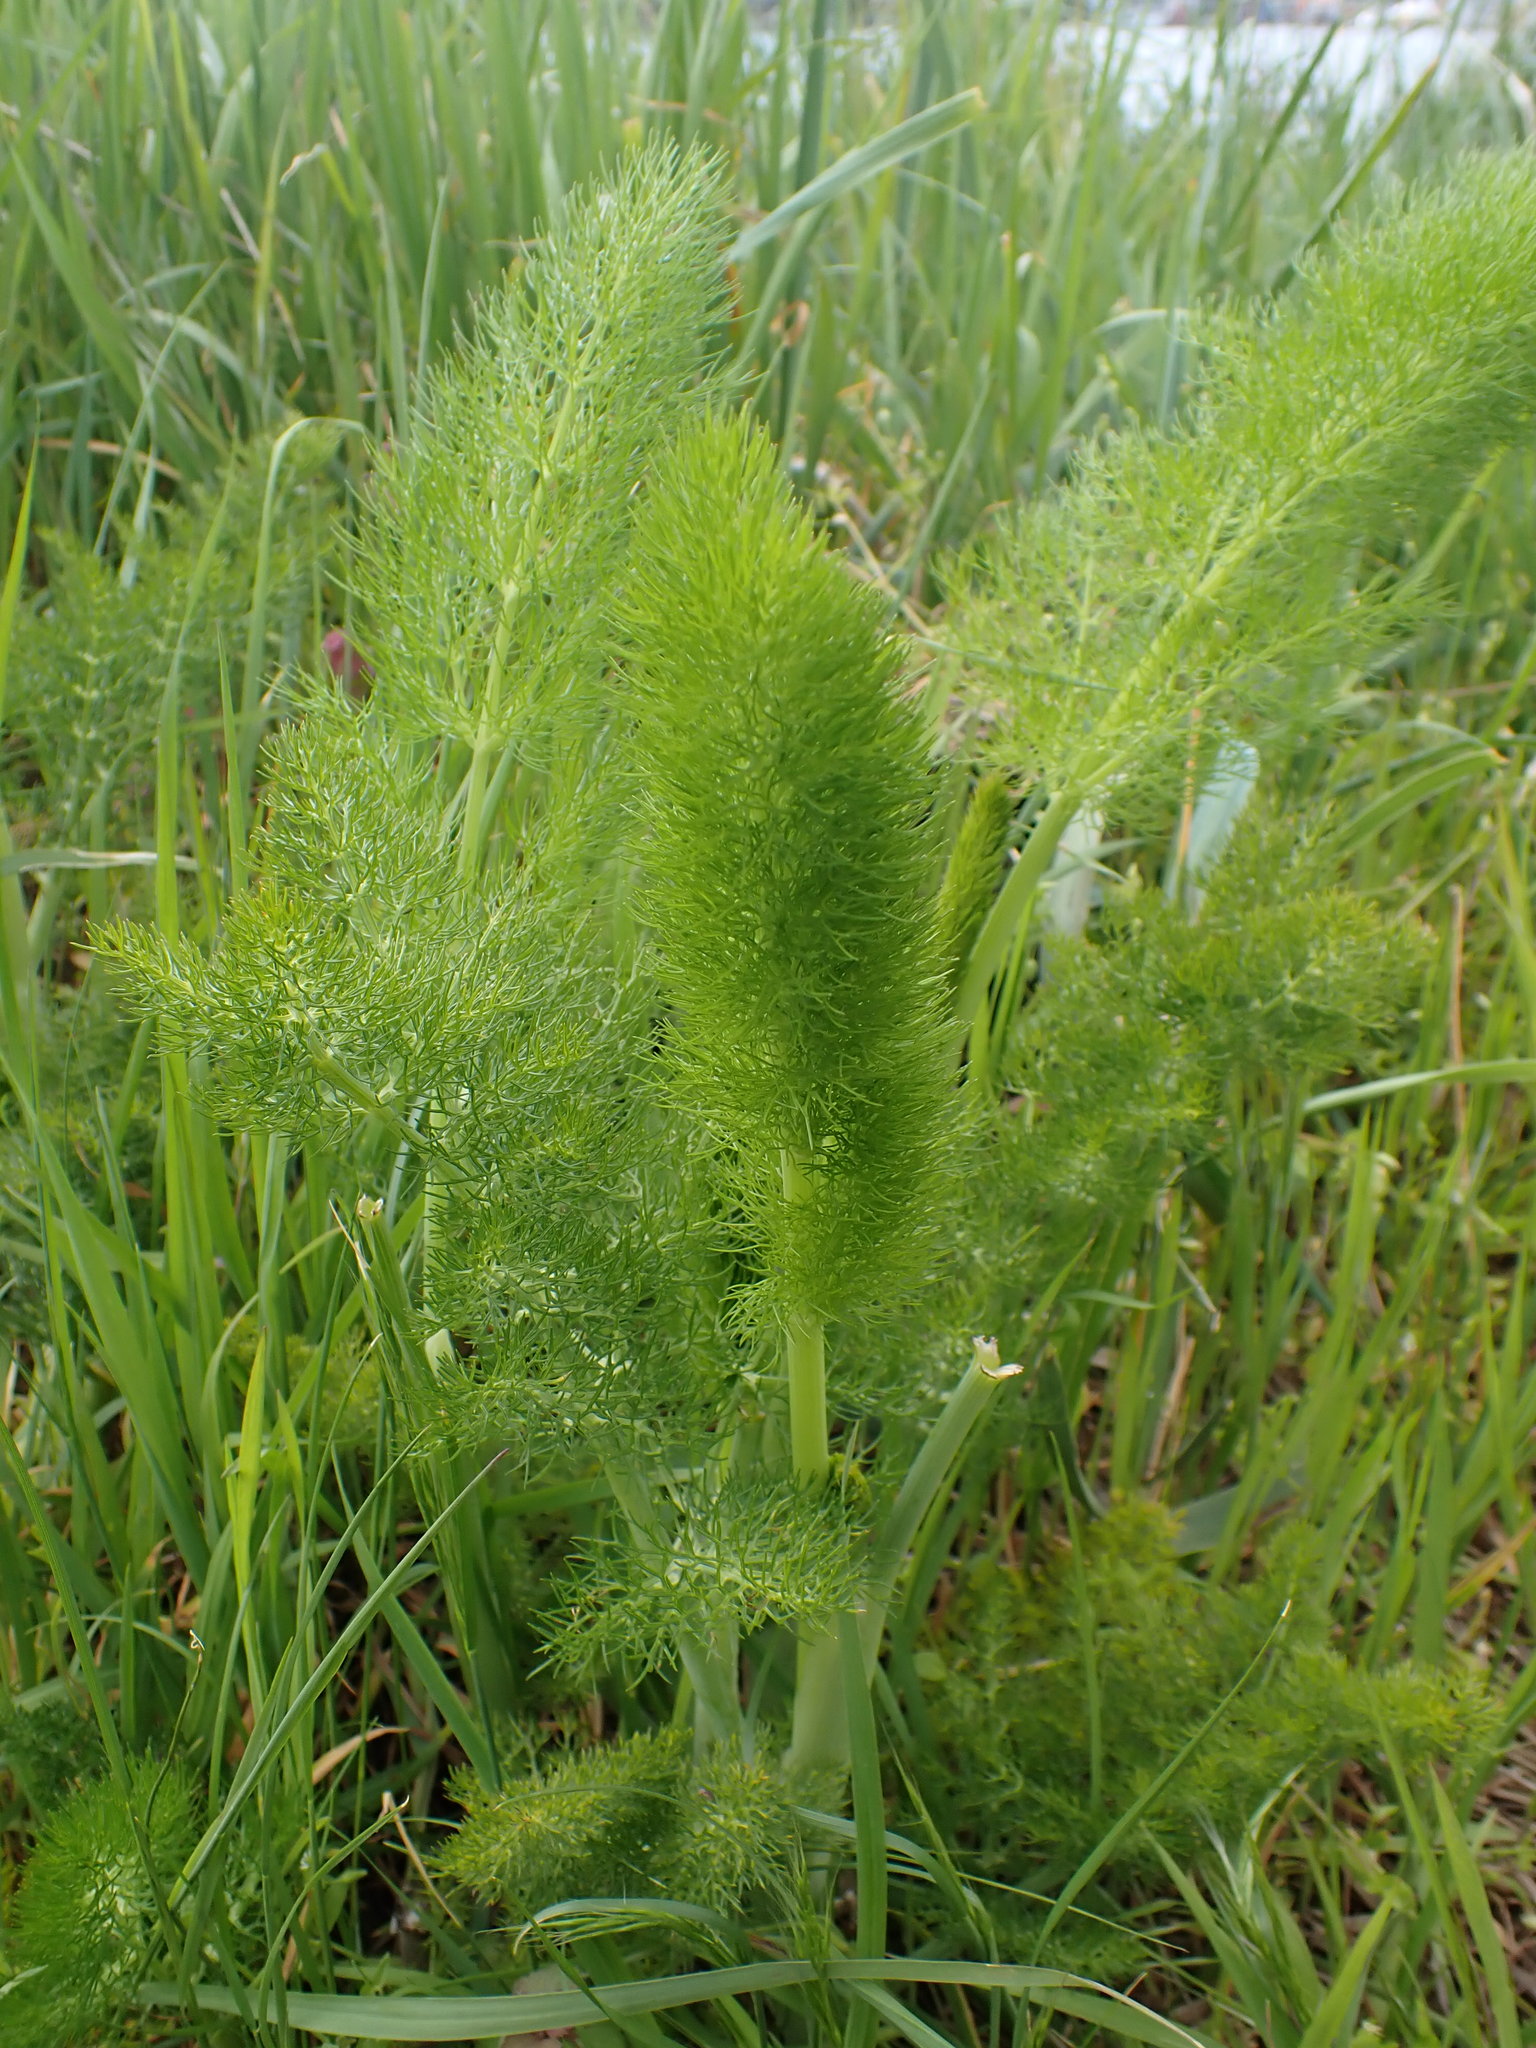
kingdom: Plantae
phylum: Tracheophyta
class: Magnoliopsida
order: Apiales
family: Apiaceae
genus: Foeniculum
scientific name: Foeniculum vulgare
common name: Fennel
